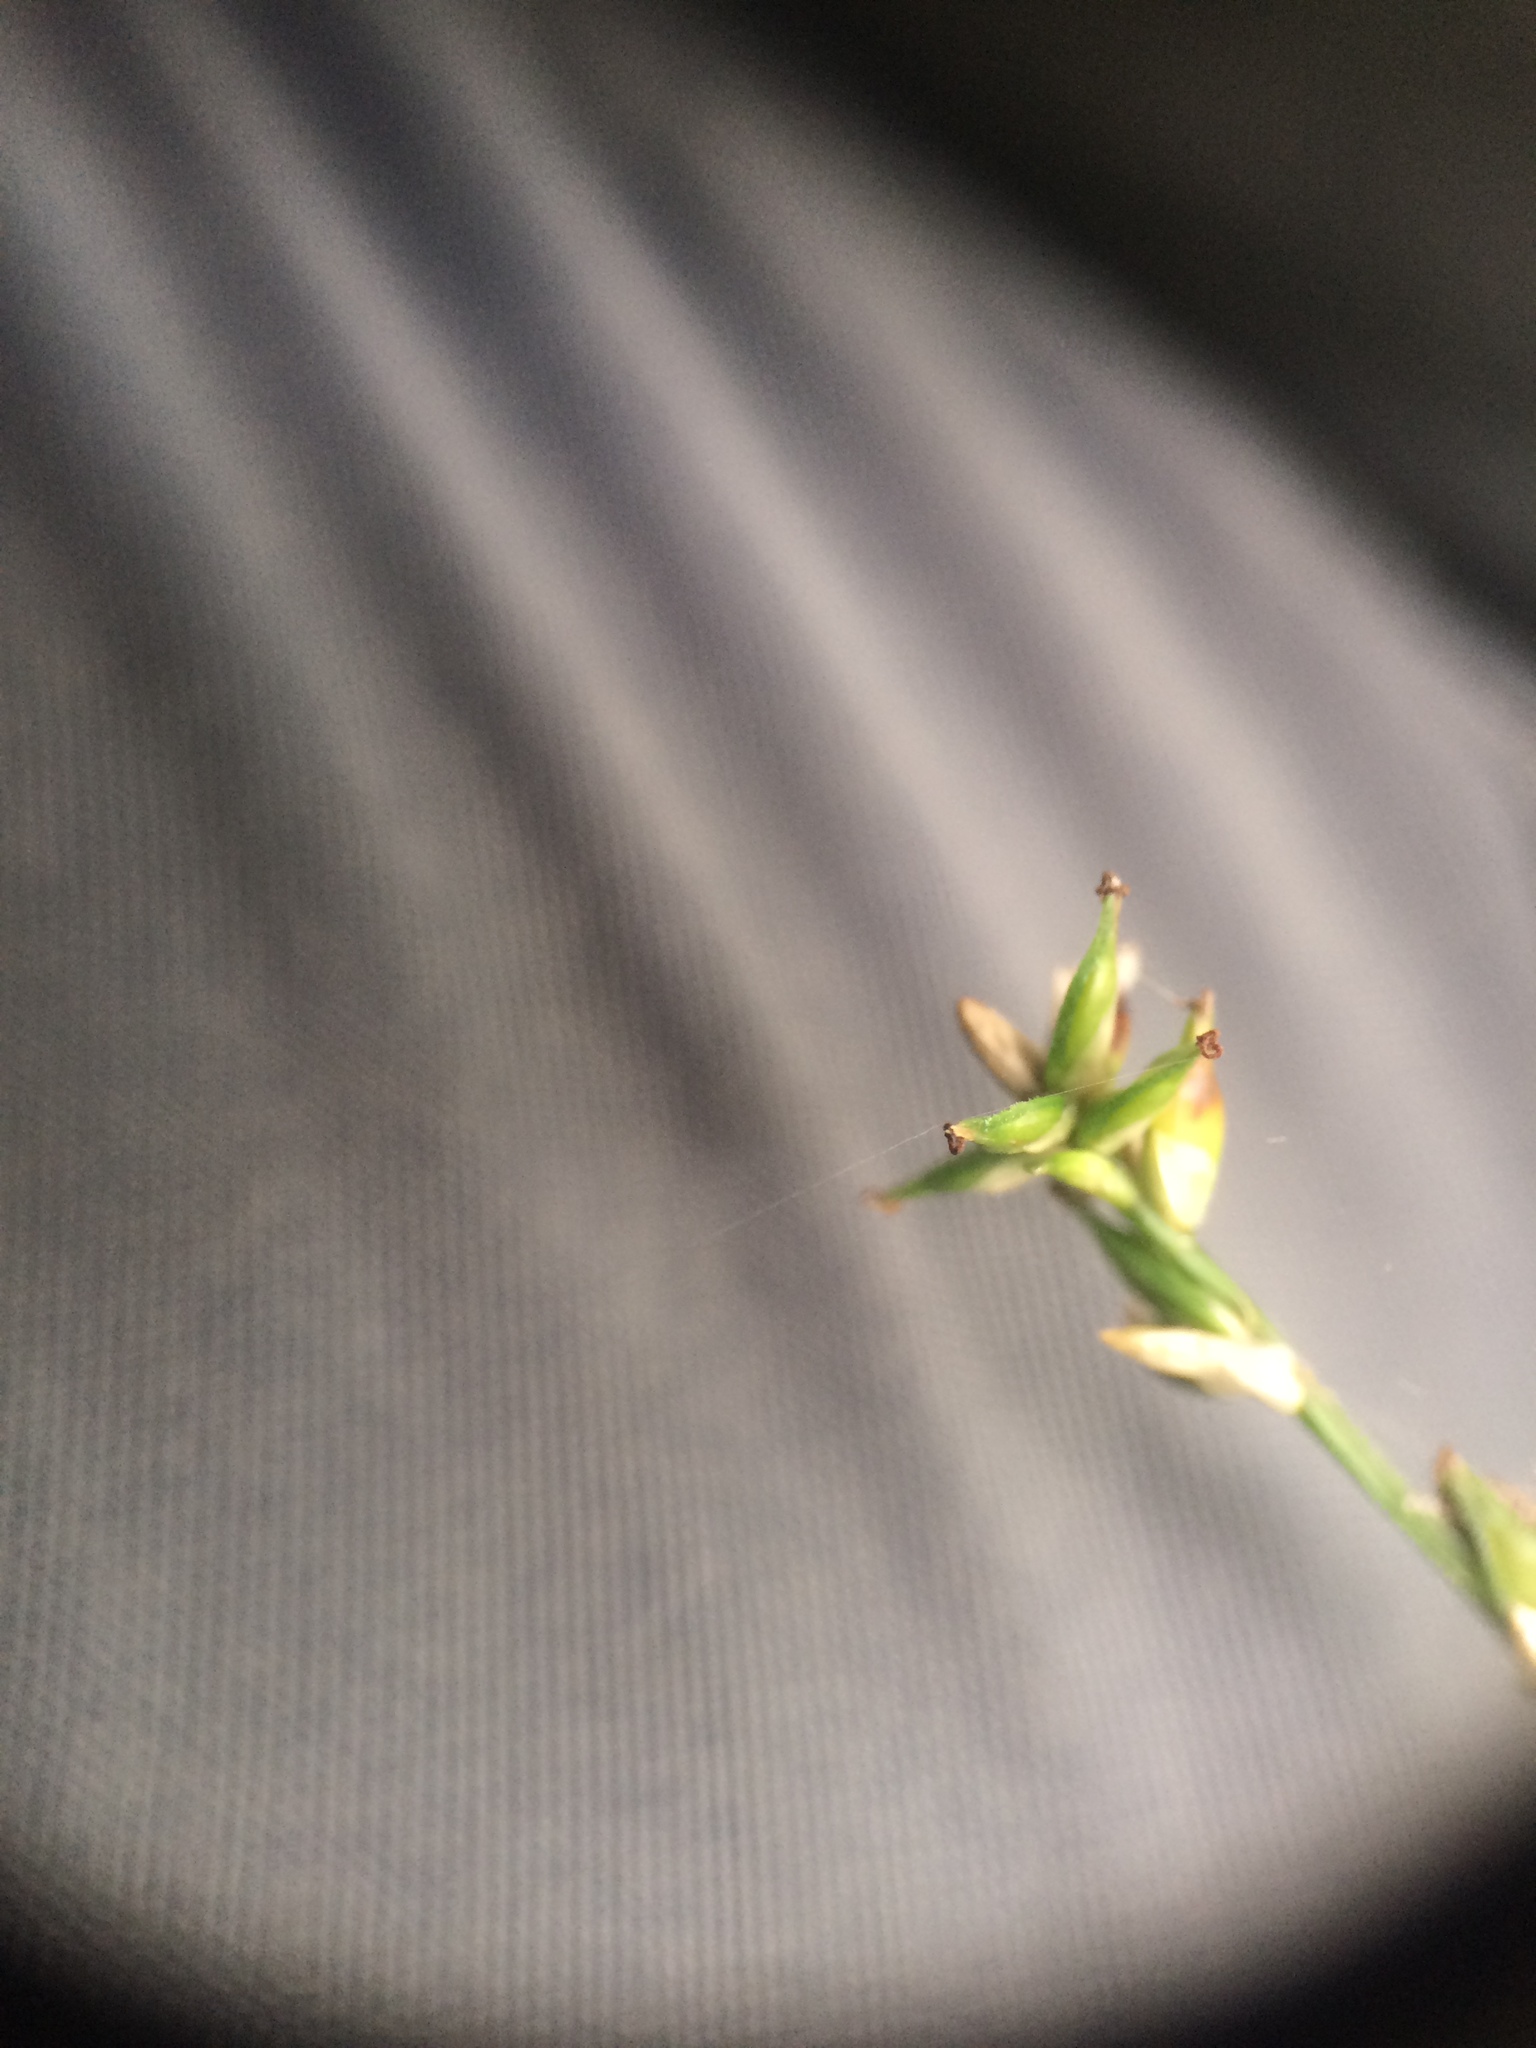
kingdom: Plantae
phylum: Tracheophyta
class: Liliopsida
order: Poales
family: Cyperaceae
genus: Carex
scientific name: Carex rosea
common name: Curly-styled wood sedge
